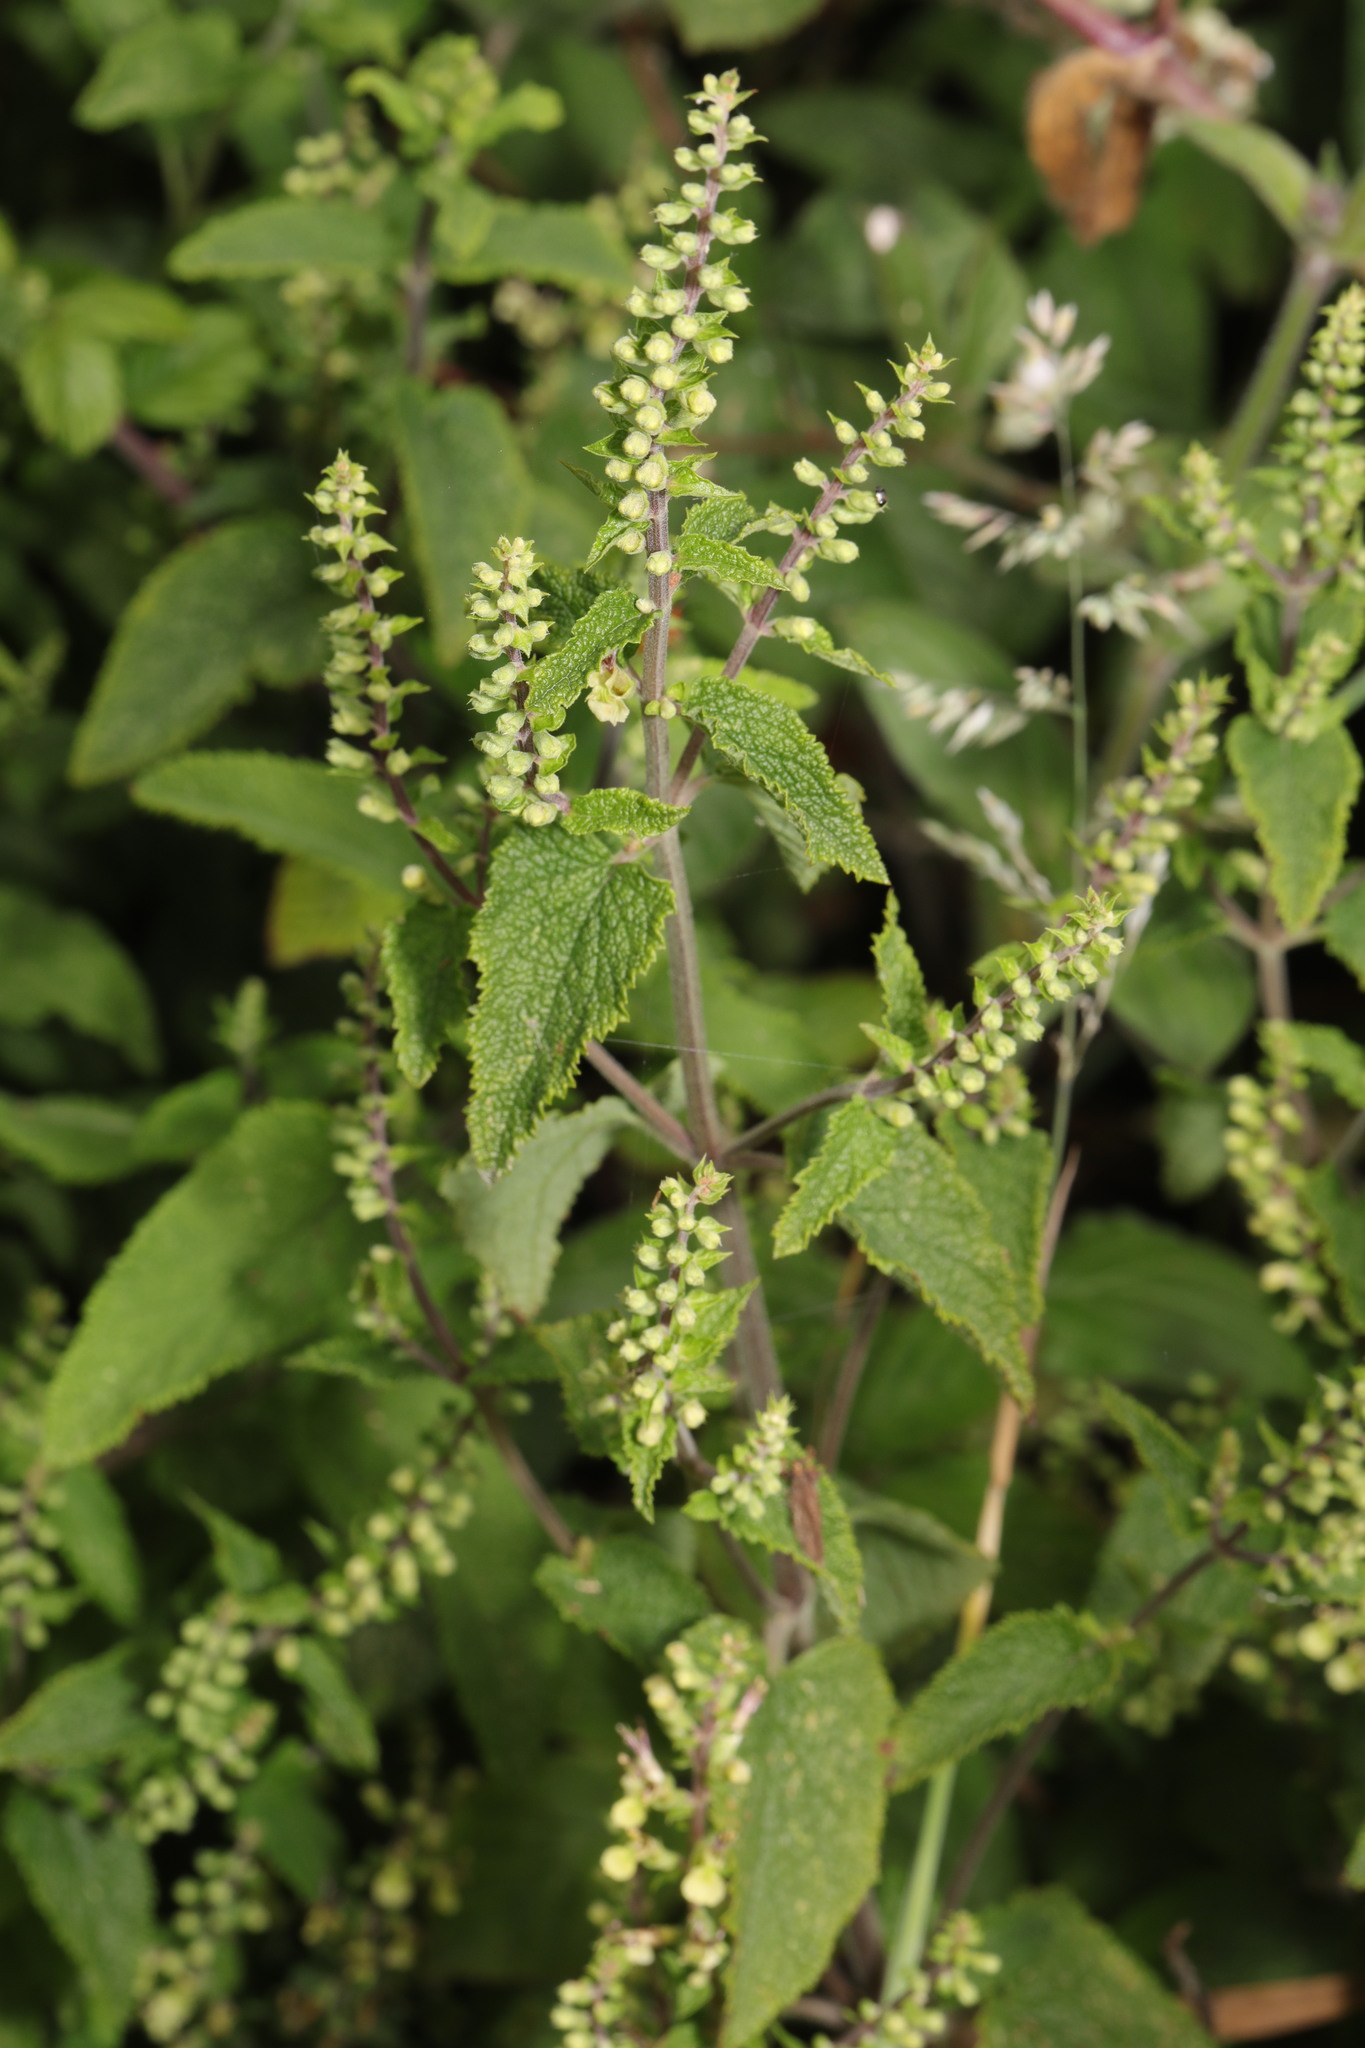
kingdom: Plantae
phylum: Tracheophyta
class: Magnoliopsida
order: Lamiales
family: Lamiaceae
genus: Teucrium
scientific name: Teucrium scorodonia
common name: Woodland germander
